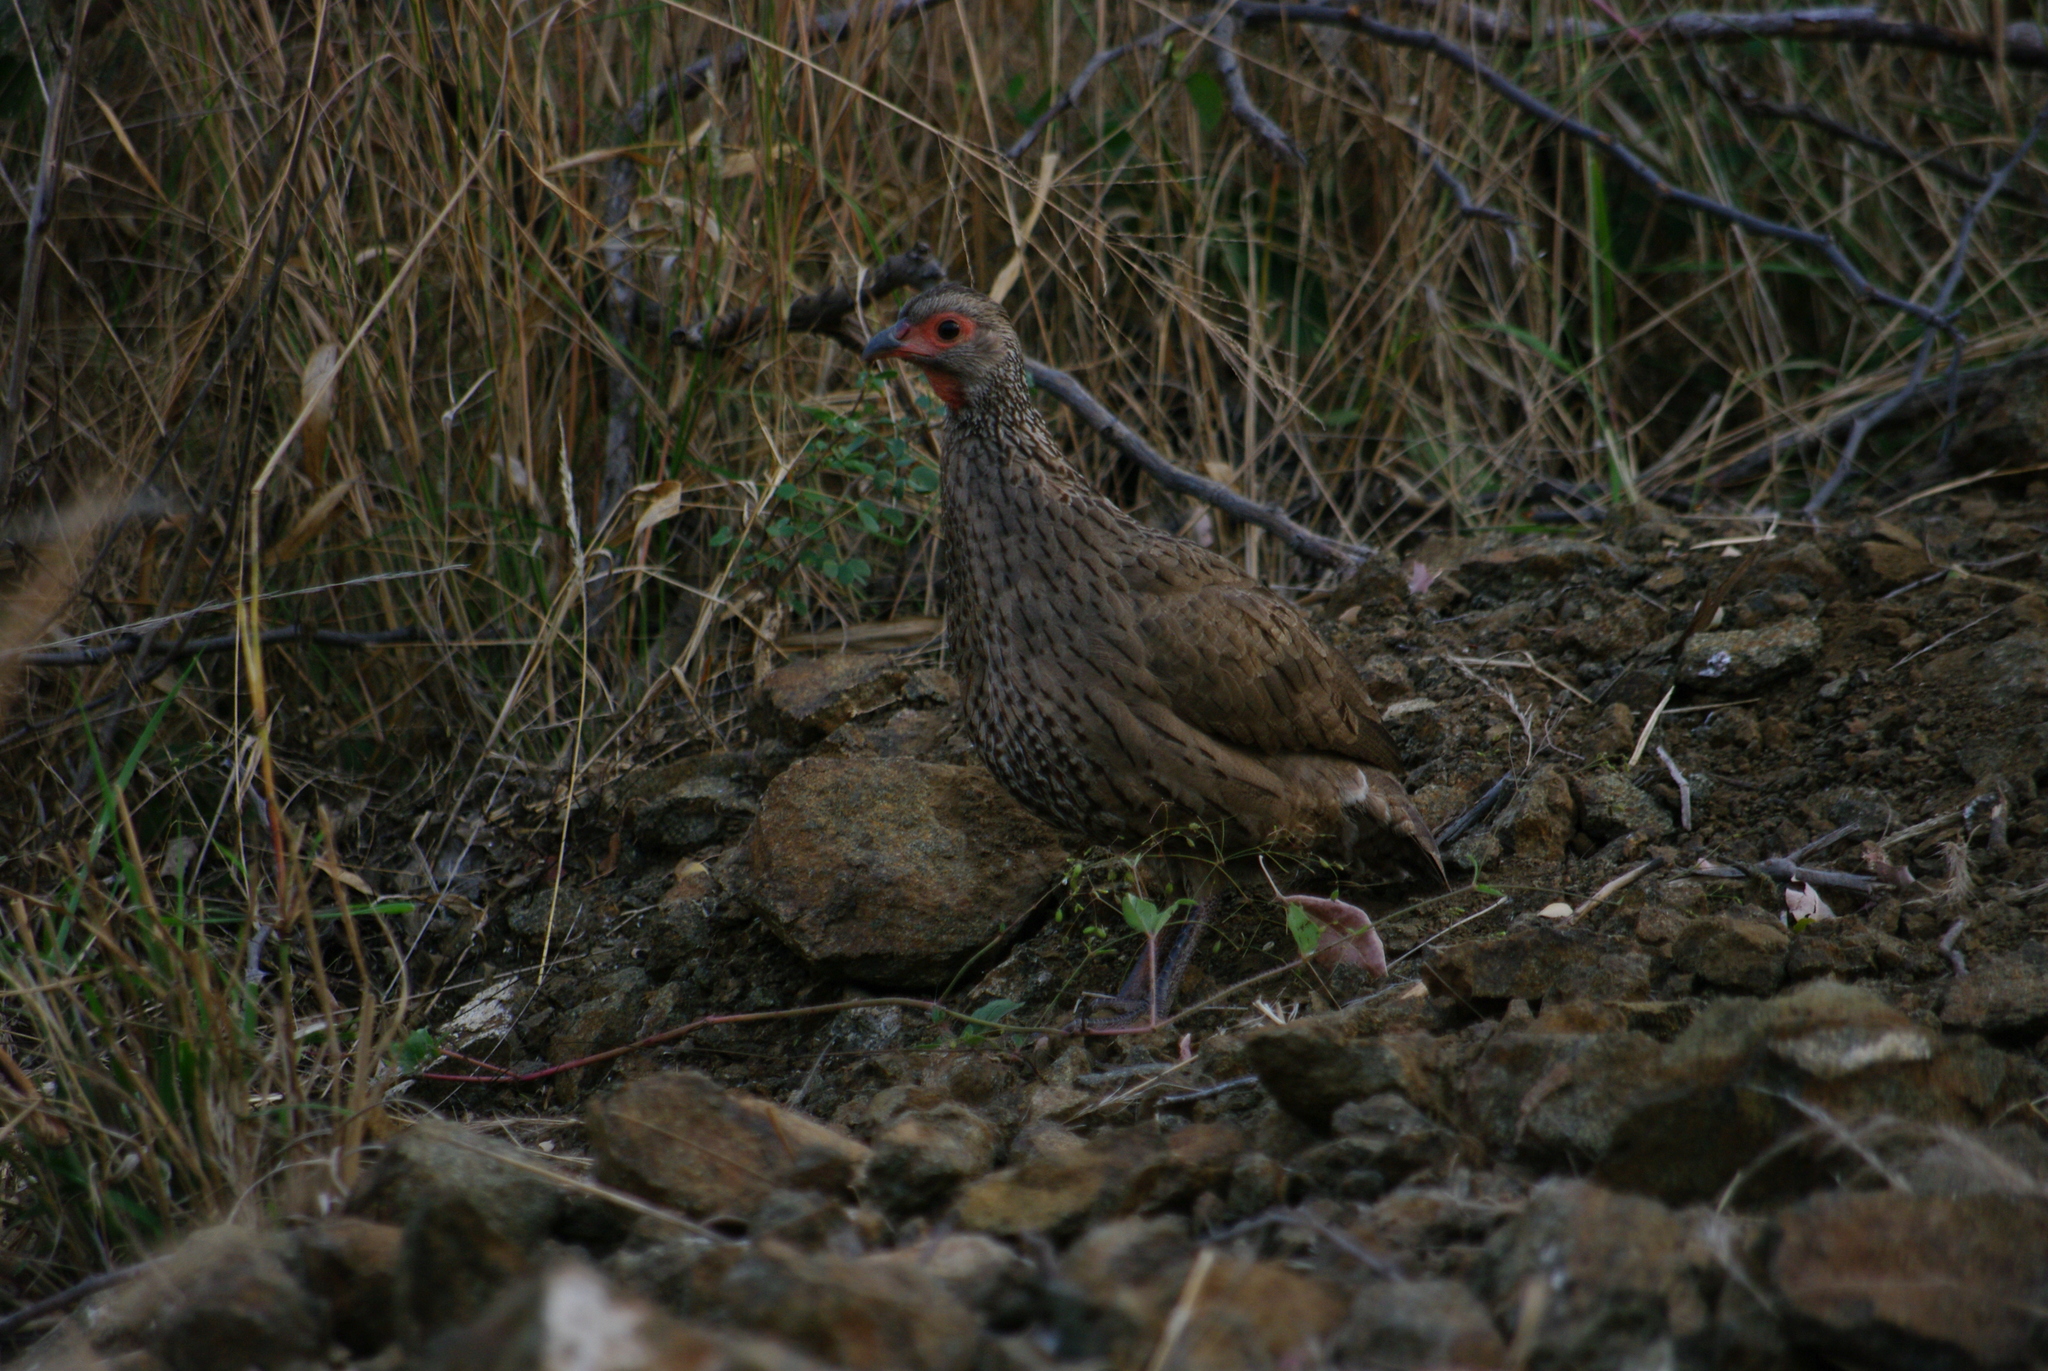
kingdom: Animalia
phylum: Chordata
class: Aves
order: Galliformes
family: Phasianidae
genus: Pternistis
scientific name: Pternistis swainsonii
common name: Swainson's spurfowl
